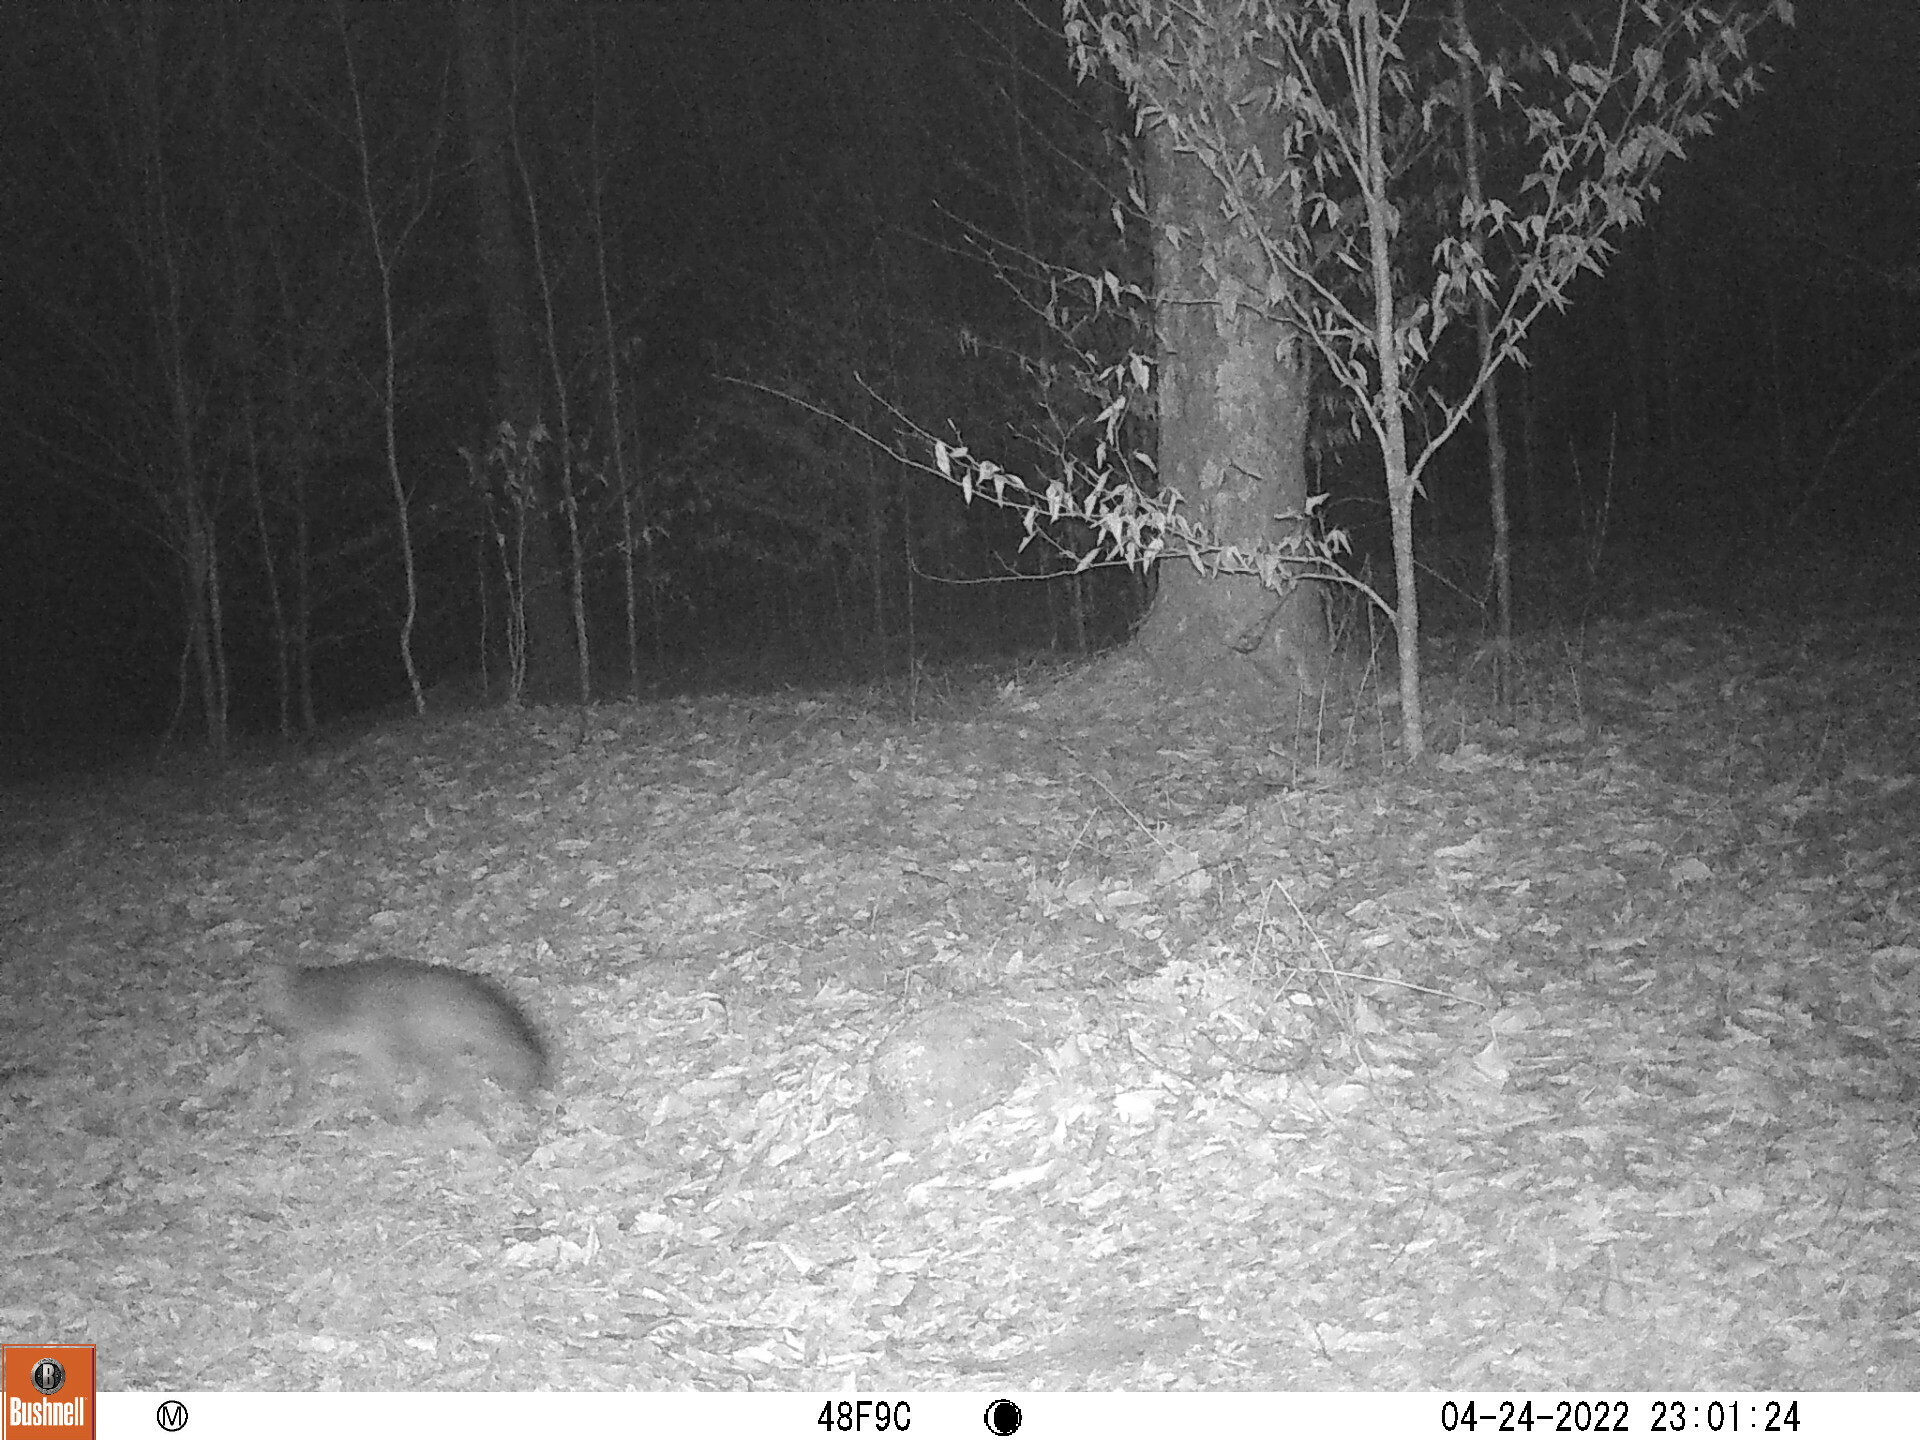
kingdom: Animalia
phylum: Chordata
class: Mammalia
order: Carnivora
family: Canidae
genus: Urocyon
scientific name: Urocyon cinereoargenteus
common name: Gray fox
